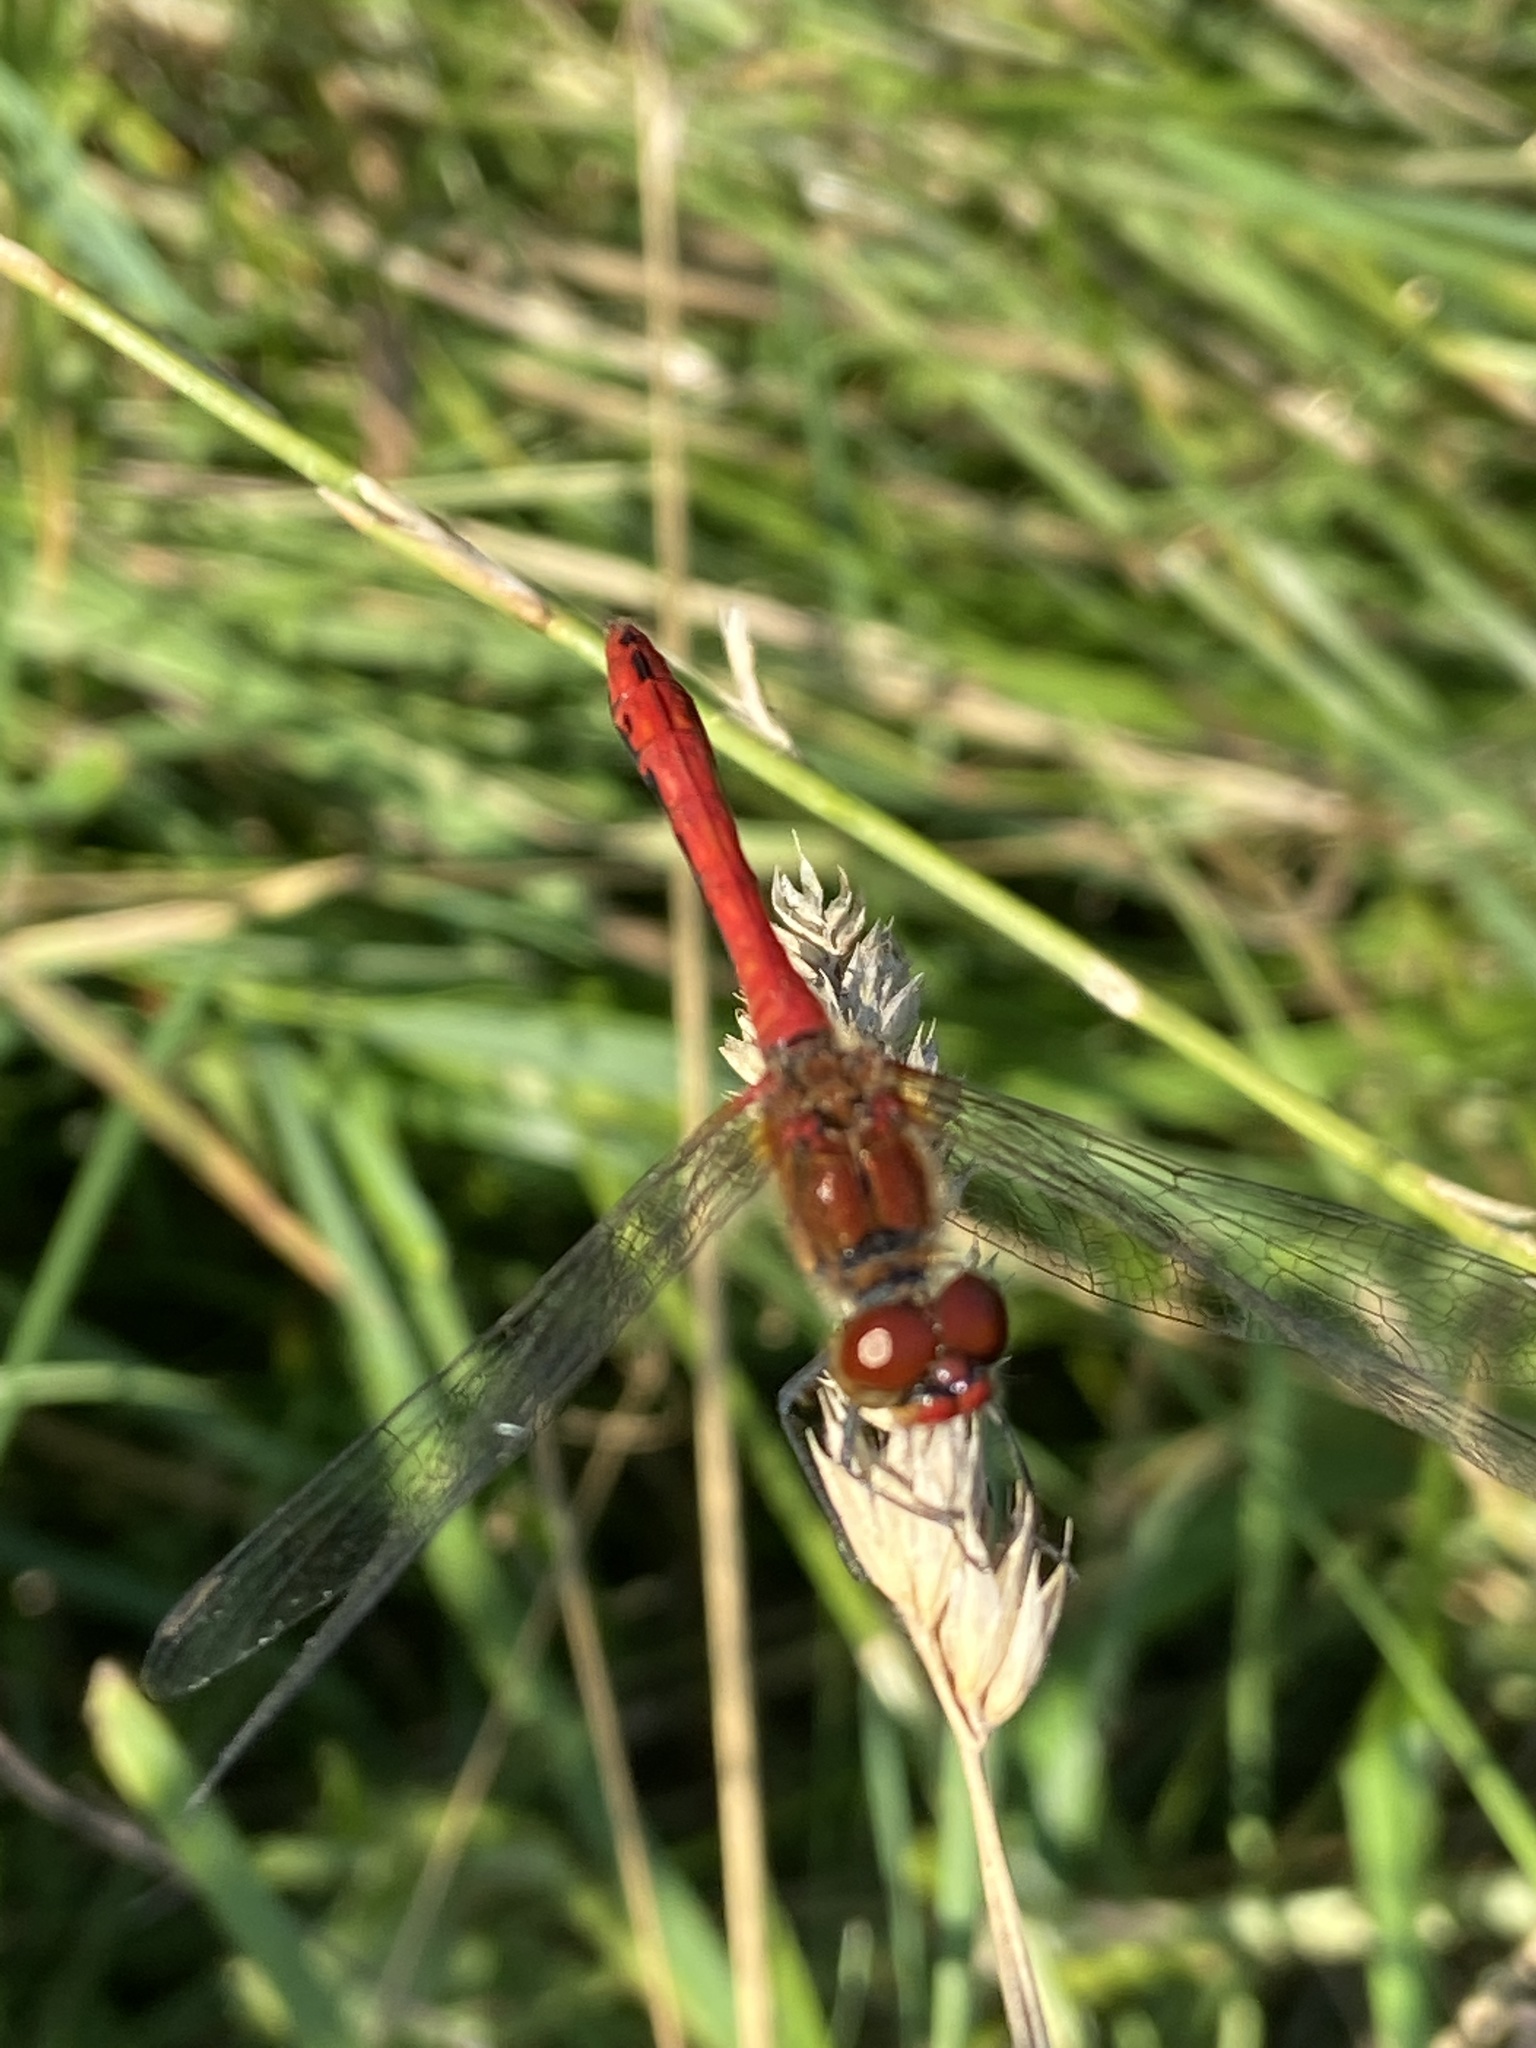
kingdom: Animalia
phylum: Arthropoda
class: Insecta
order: Odonata
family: Libellulidae
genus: Sympetrum
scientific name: Sympetrum sanguineum
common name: Ruddy darter
